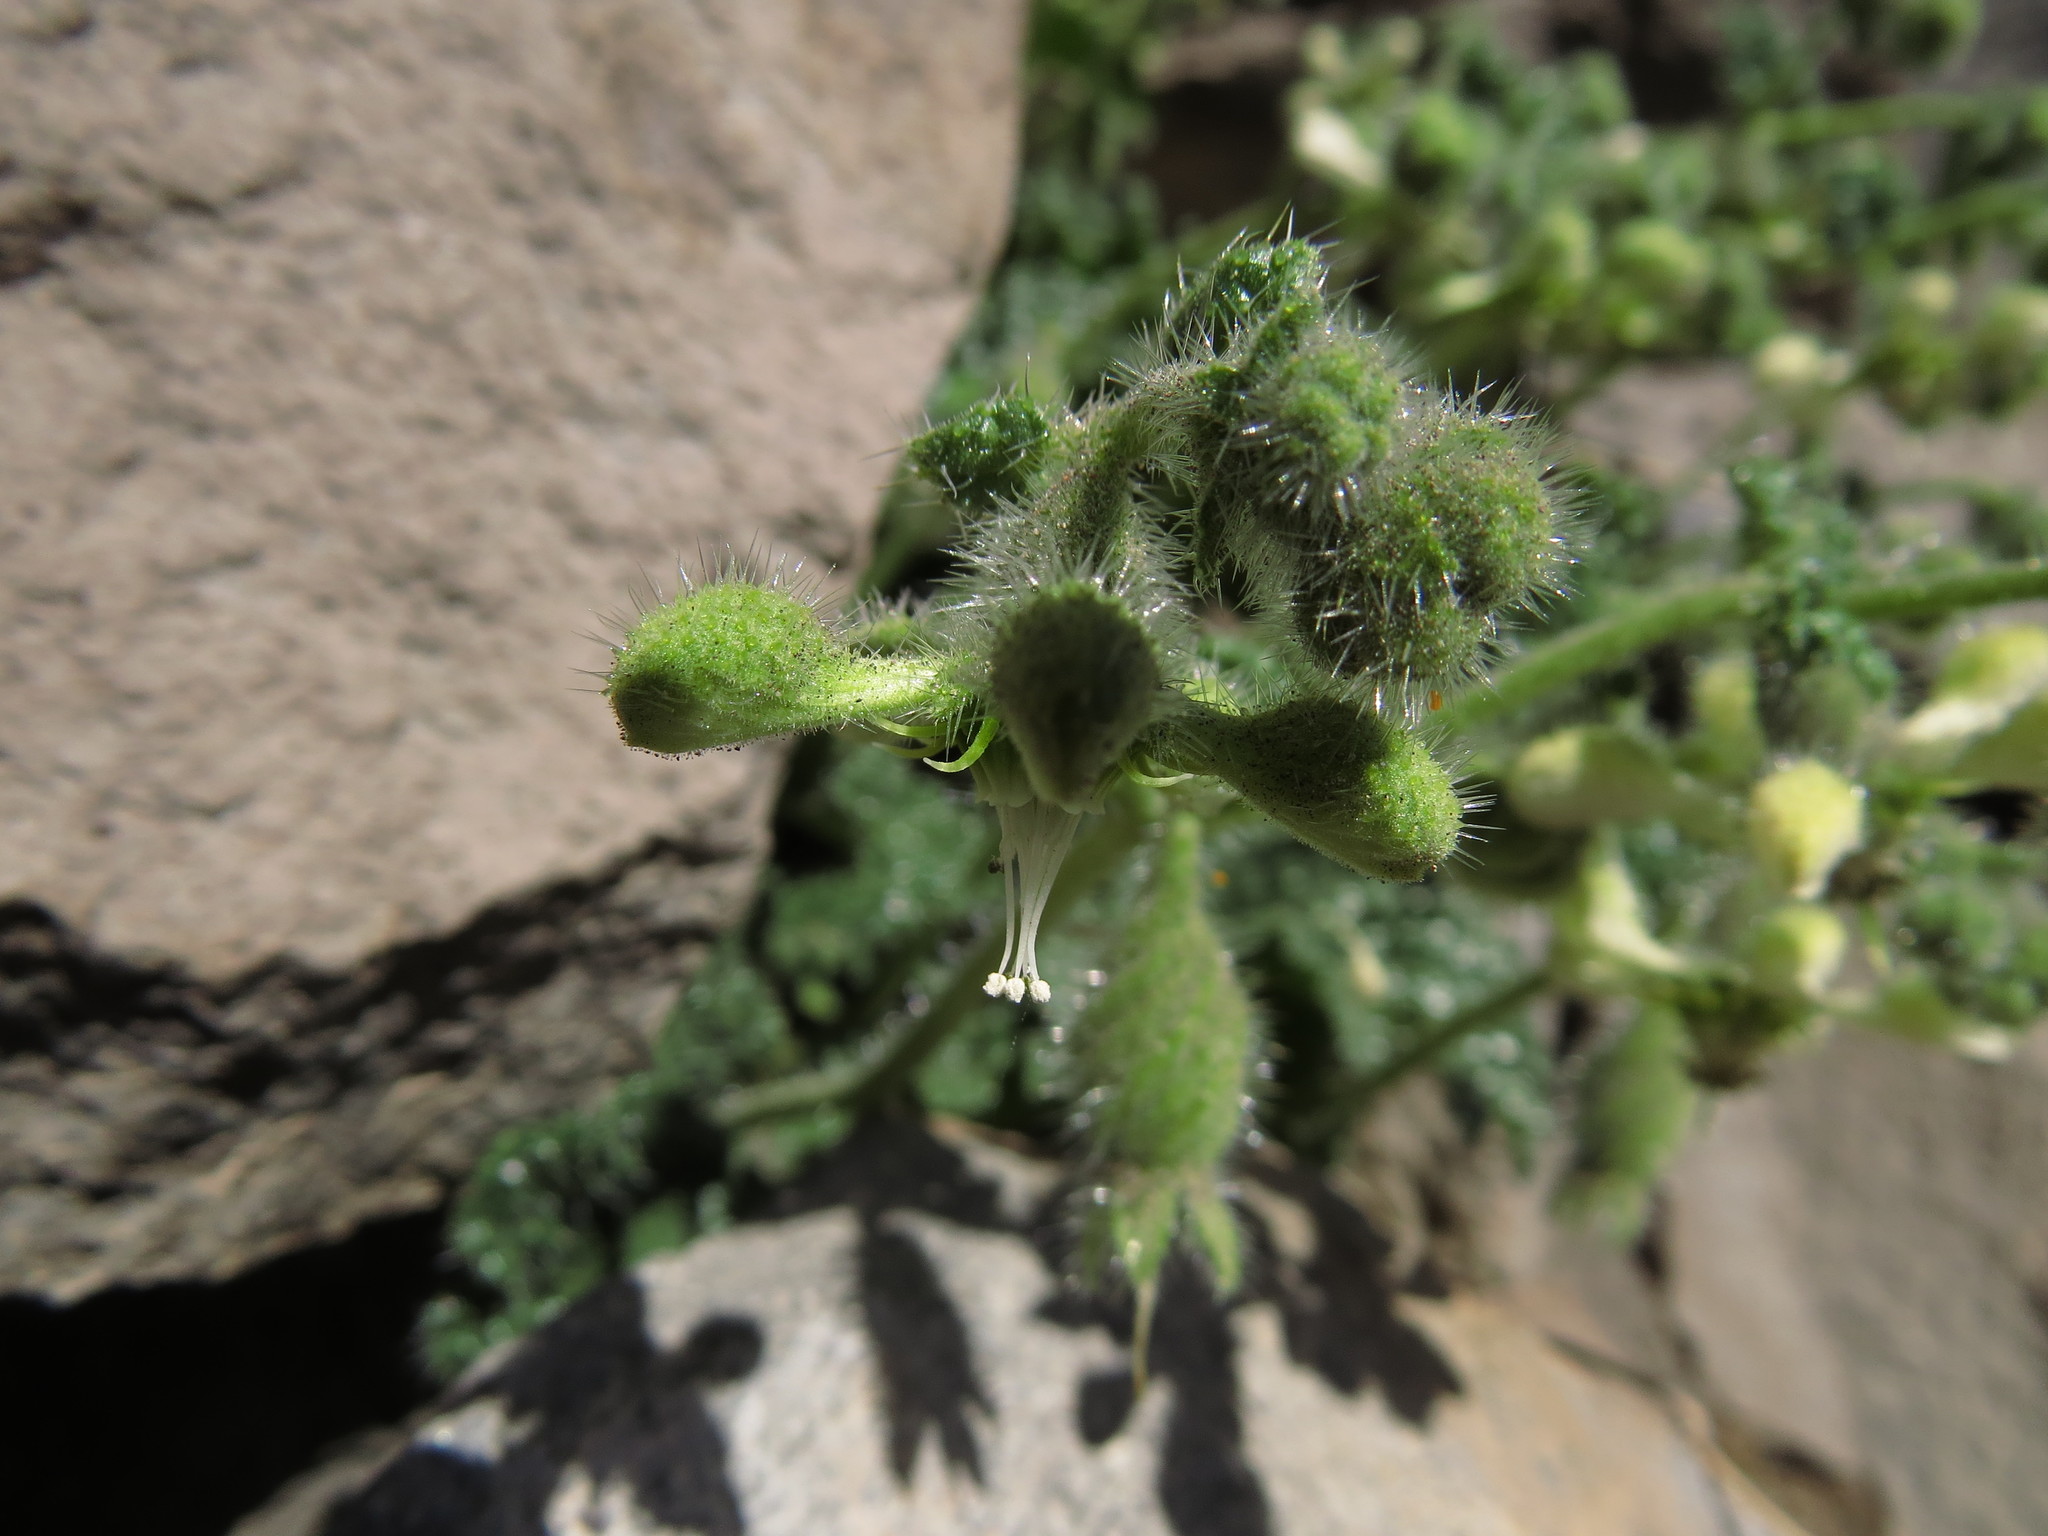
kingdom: Plantae
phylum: Tracheophyta
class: Magnoliopsida
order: Cornales
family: Loasaceae
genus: Blumenbachia
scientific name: Blumenbachia prietea
